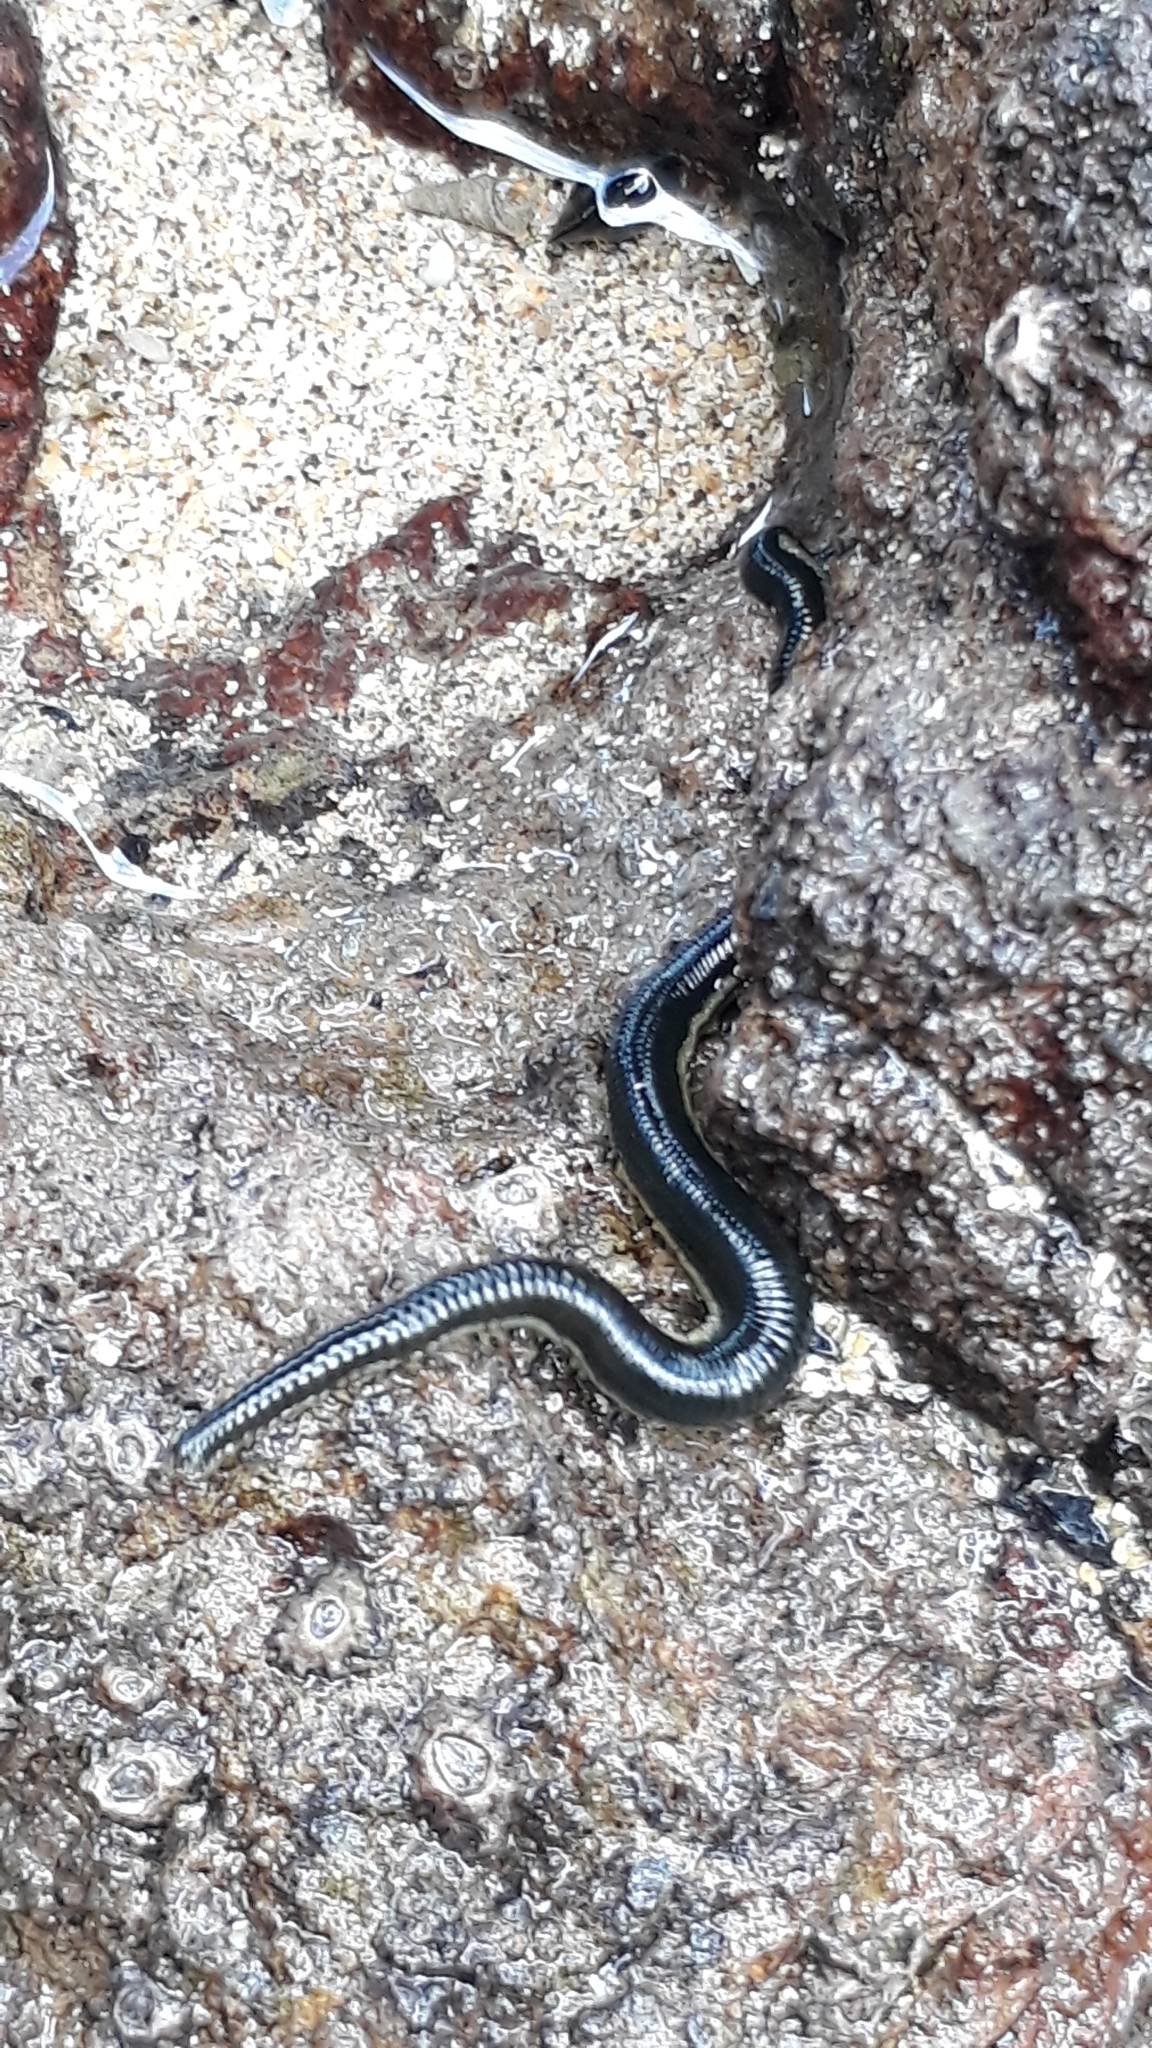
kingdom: Animalia
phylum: Annelida
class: Polychaeta
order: Phyllodocida
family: Phyllodocidae
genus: Eulalia
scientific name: Eulalia microphylla
